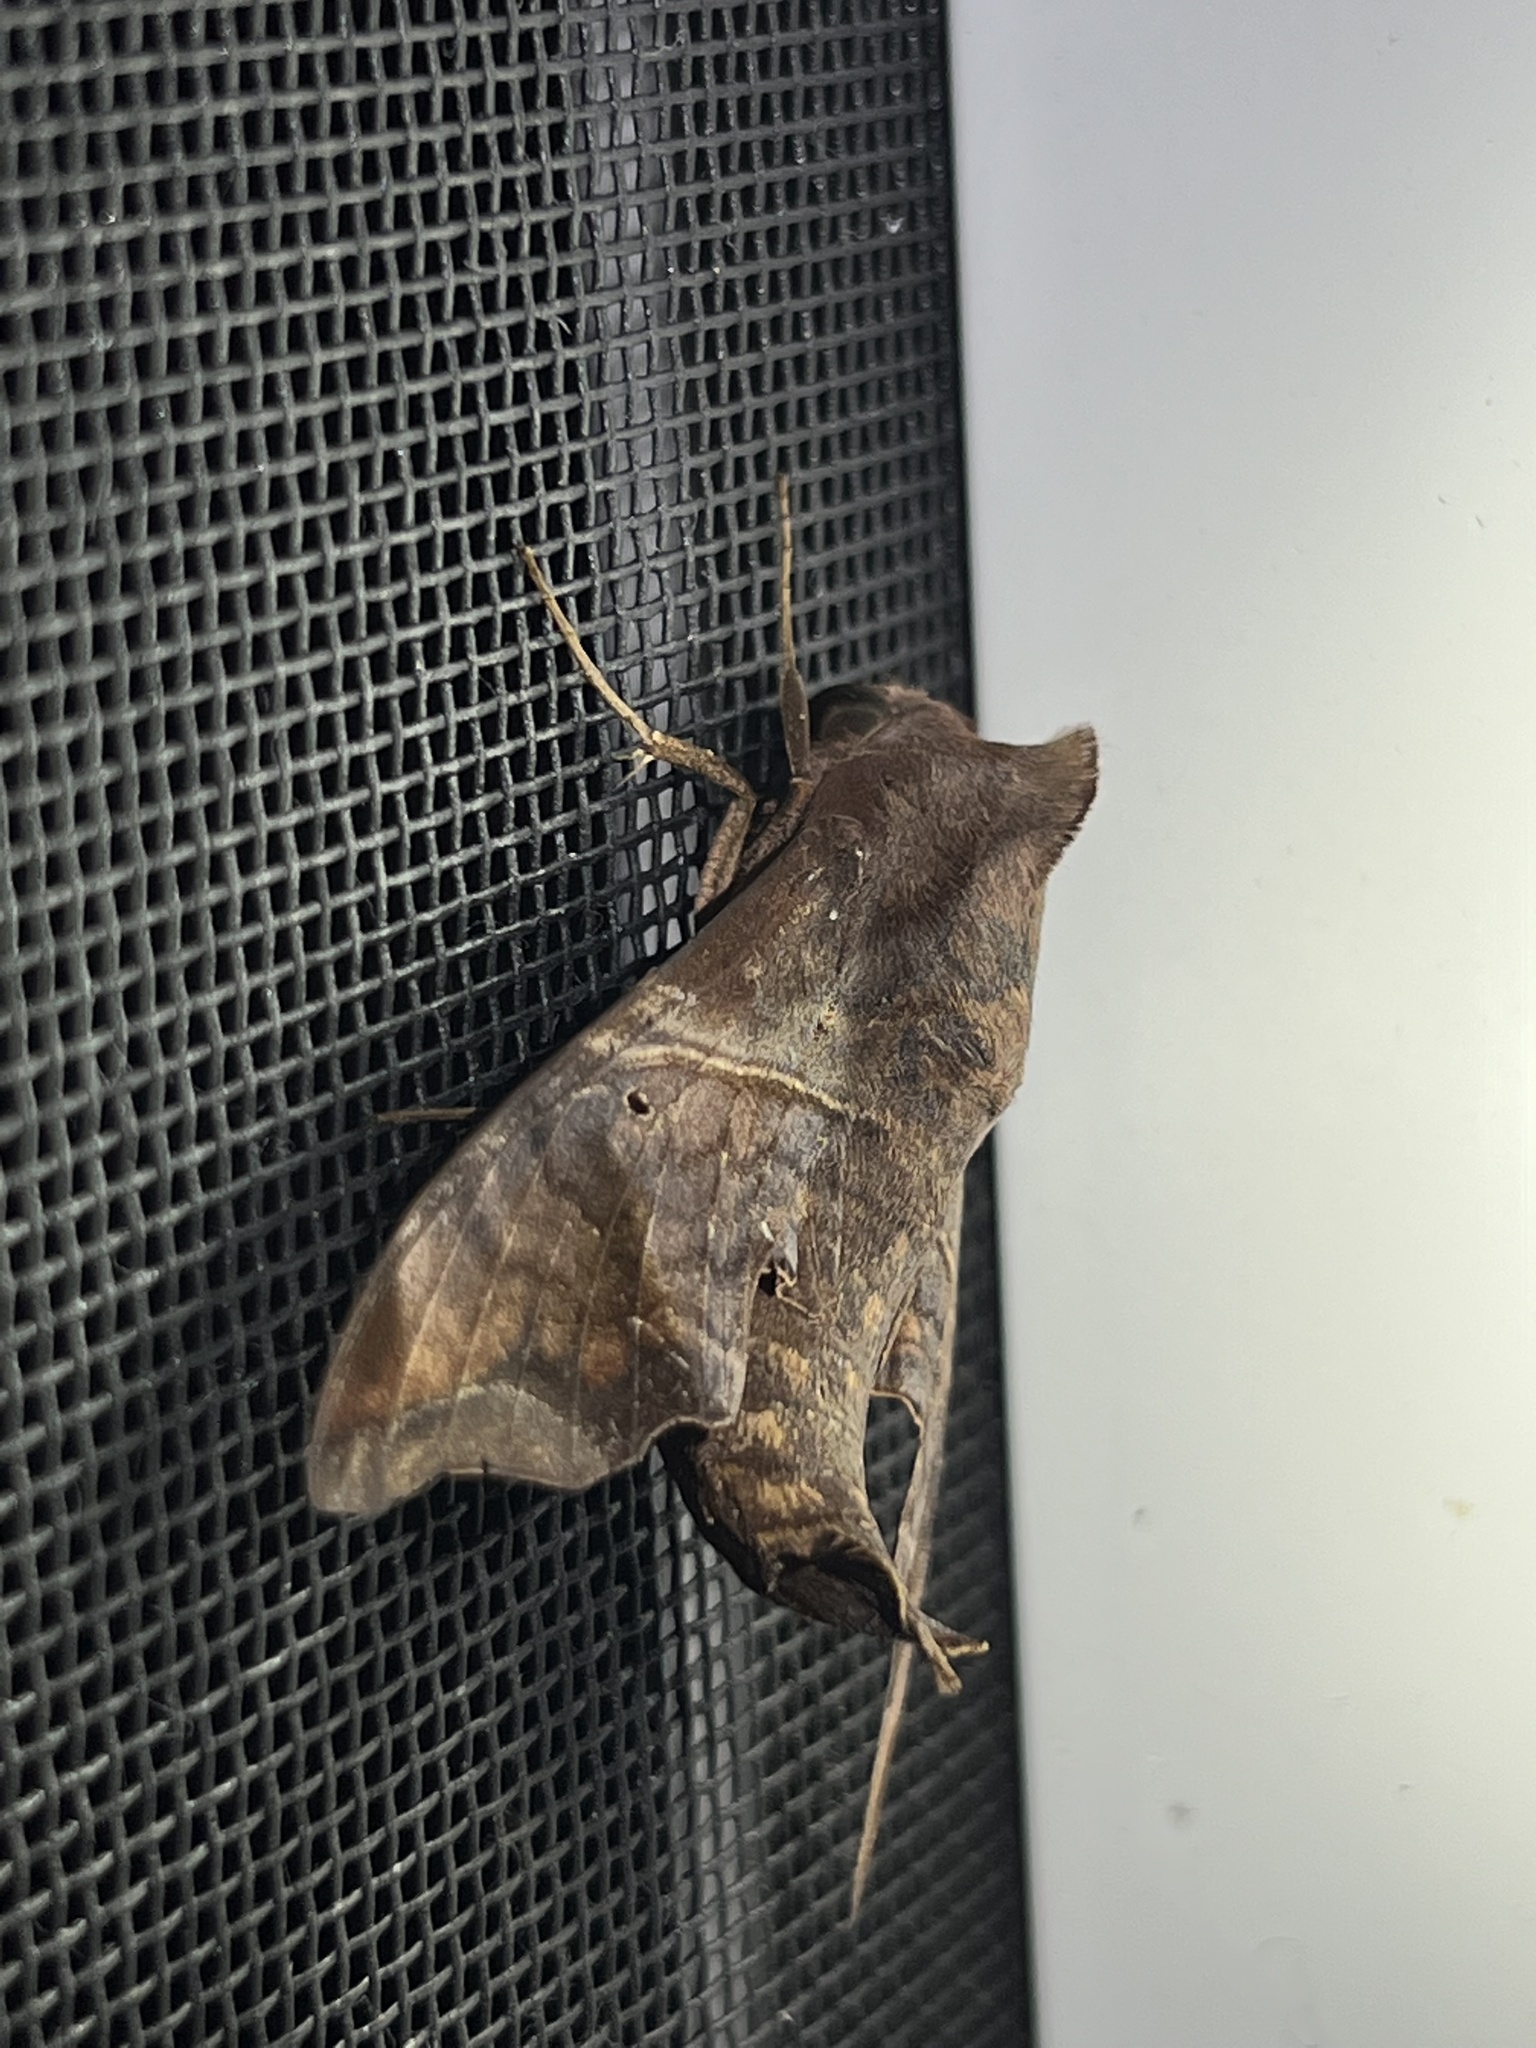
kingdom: Animalia
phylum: Arthropoda
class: Insecta
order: Lepidoptera
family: Sphingidae
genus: Enyo
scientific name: Enyo lugubris
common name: Mournful sphinx
